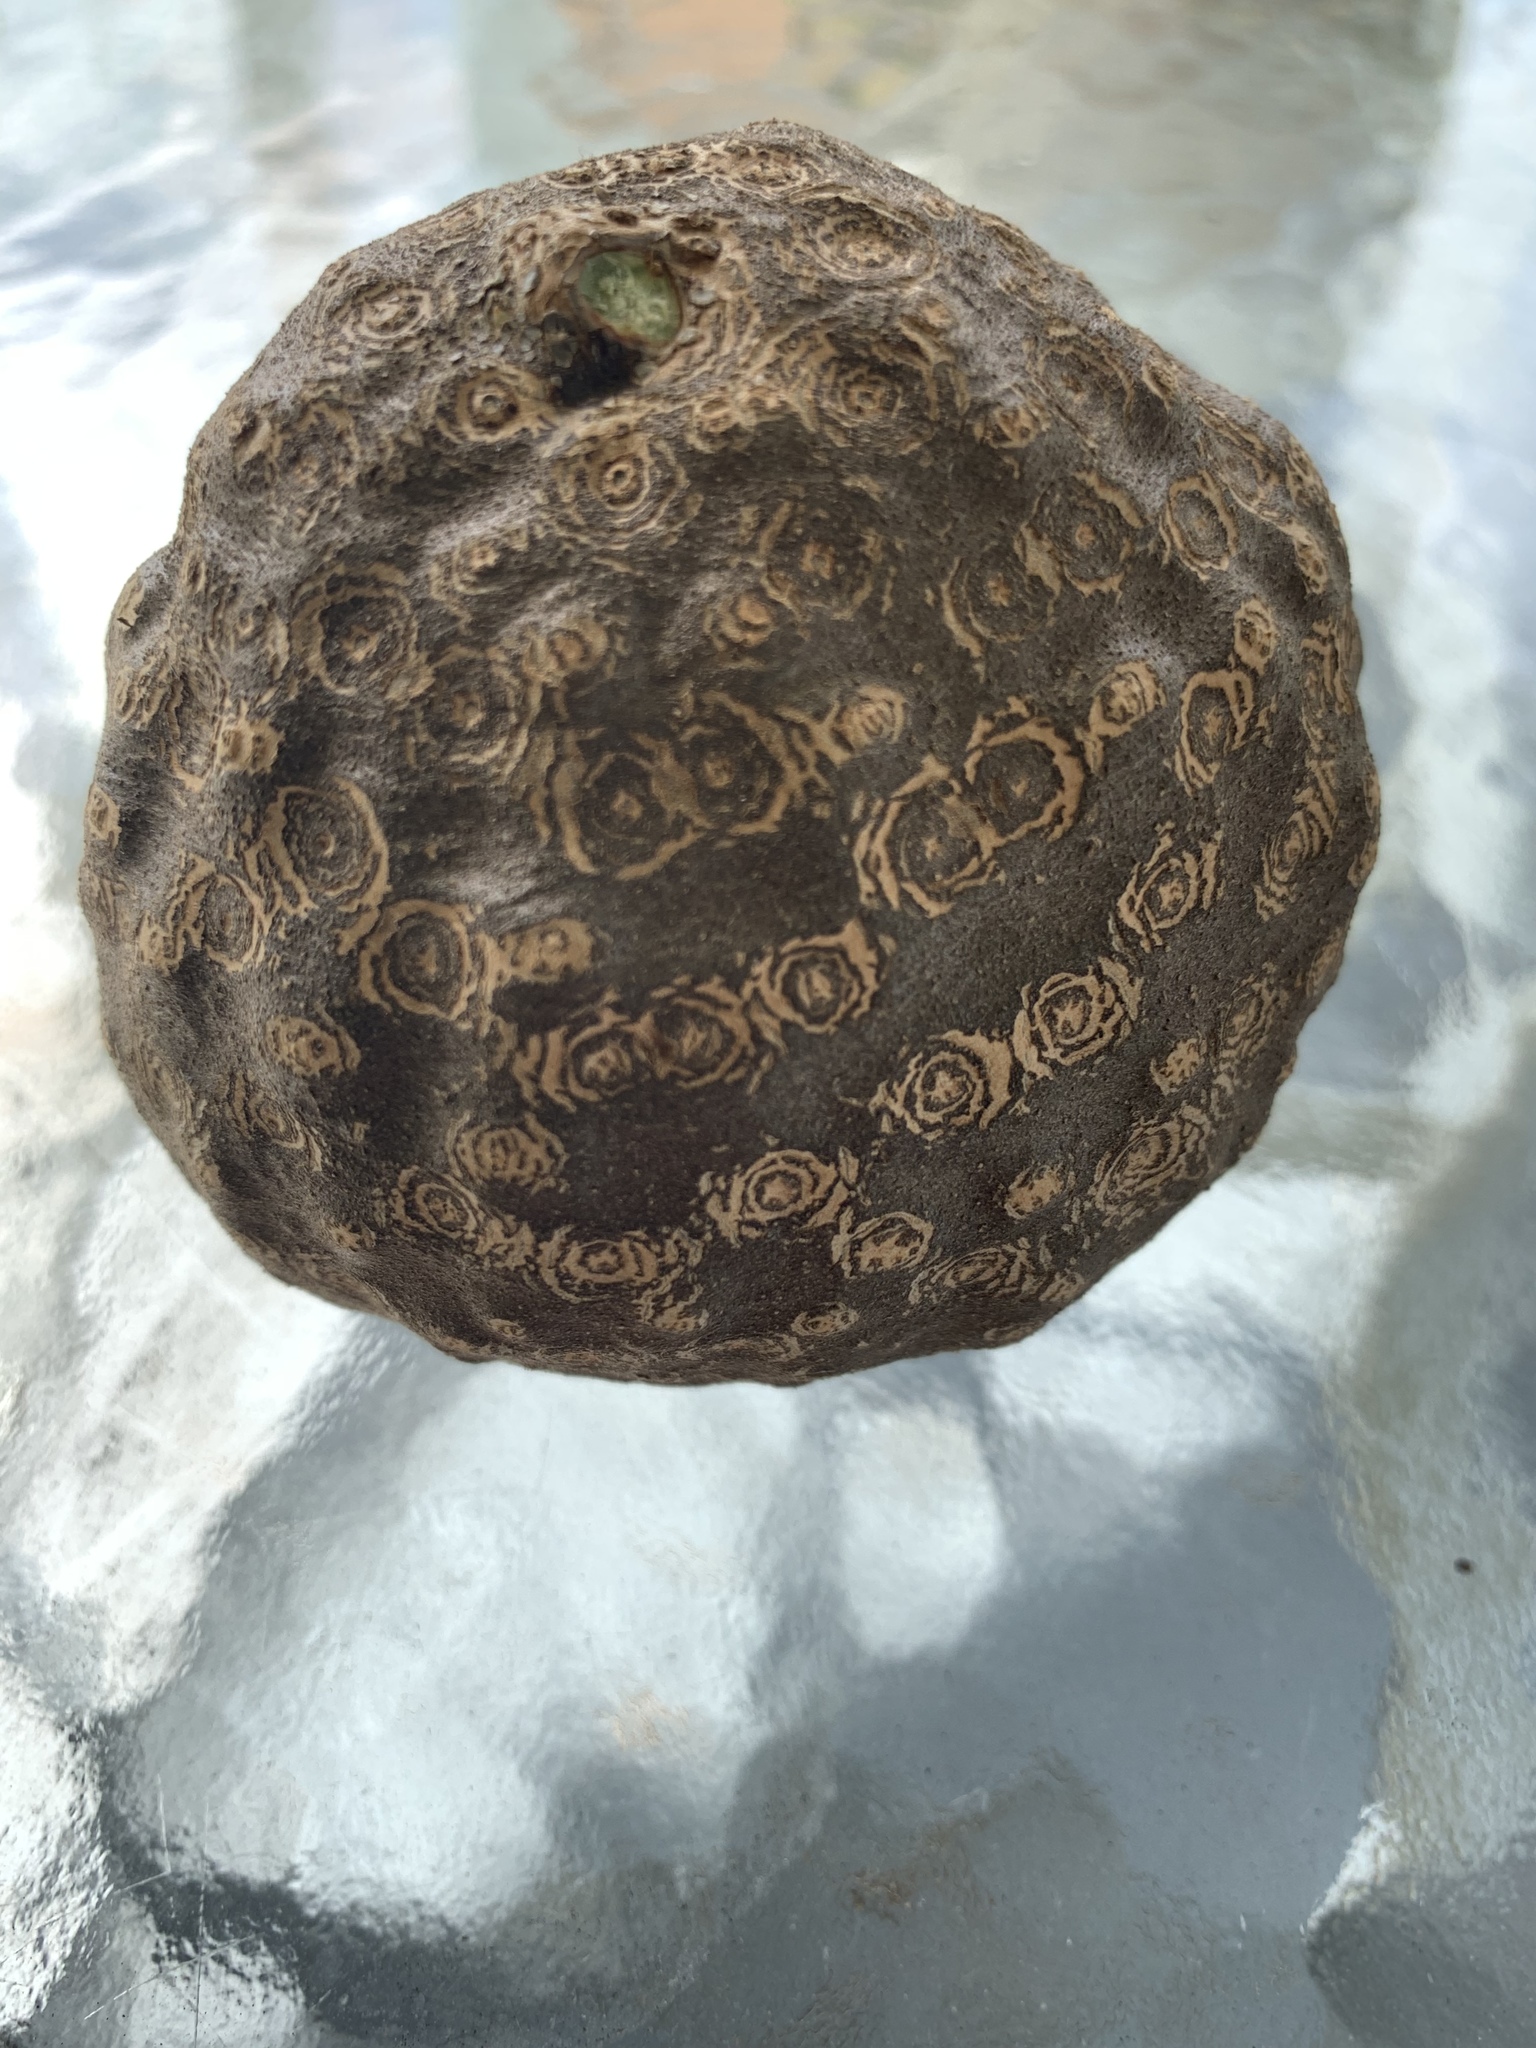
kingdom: Plantae
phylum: Tracheophyta
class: Liliopsida
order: Dioscoreales
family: Dioscoreaceae
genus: Dioscorea
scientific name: Dioscorea bulbifera
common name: Air yam
